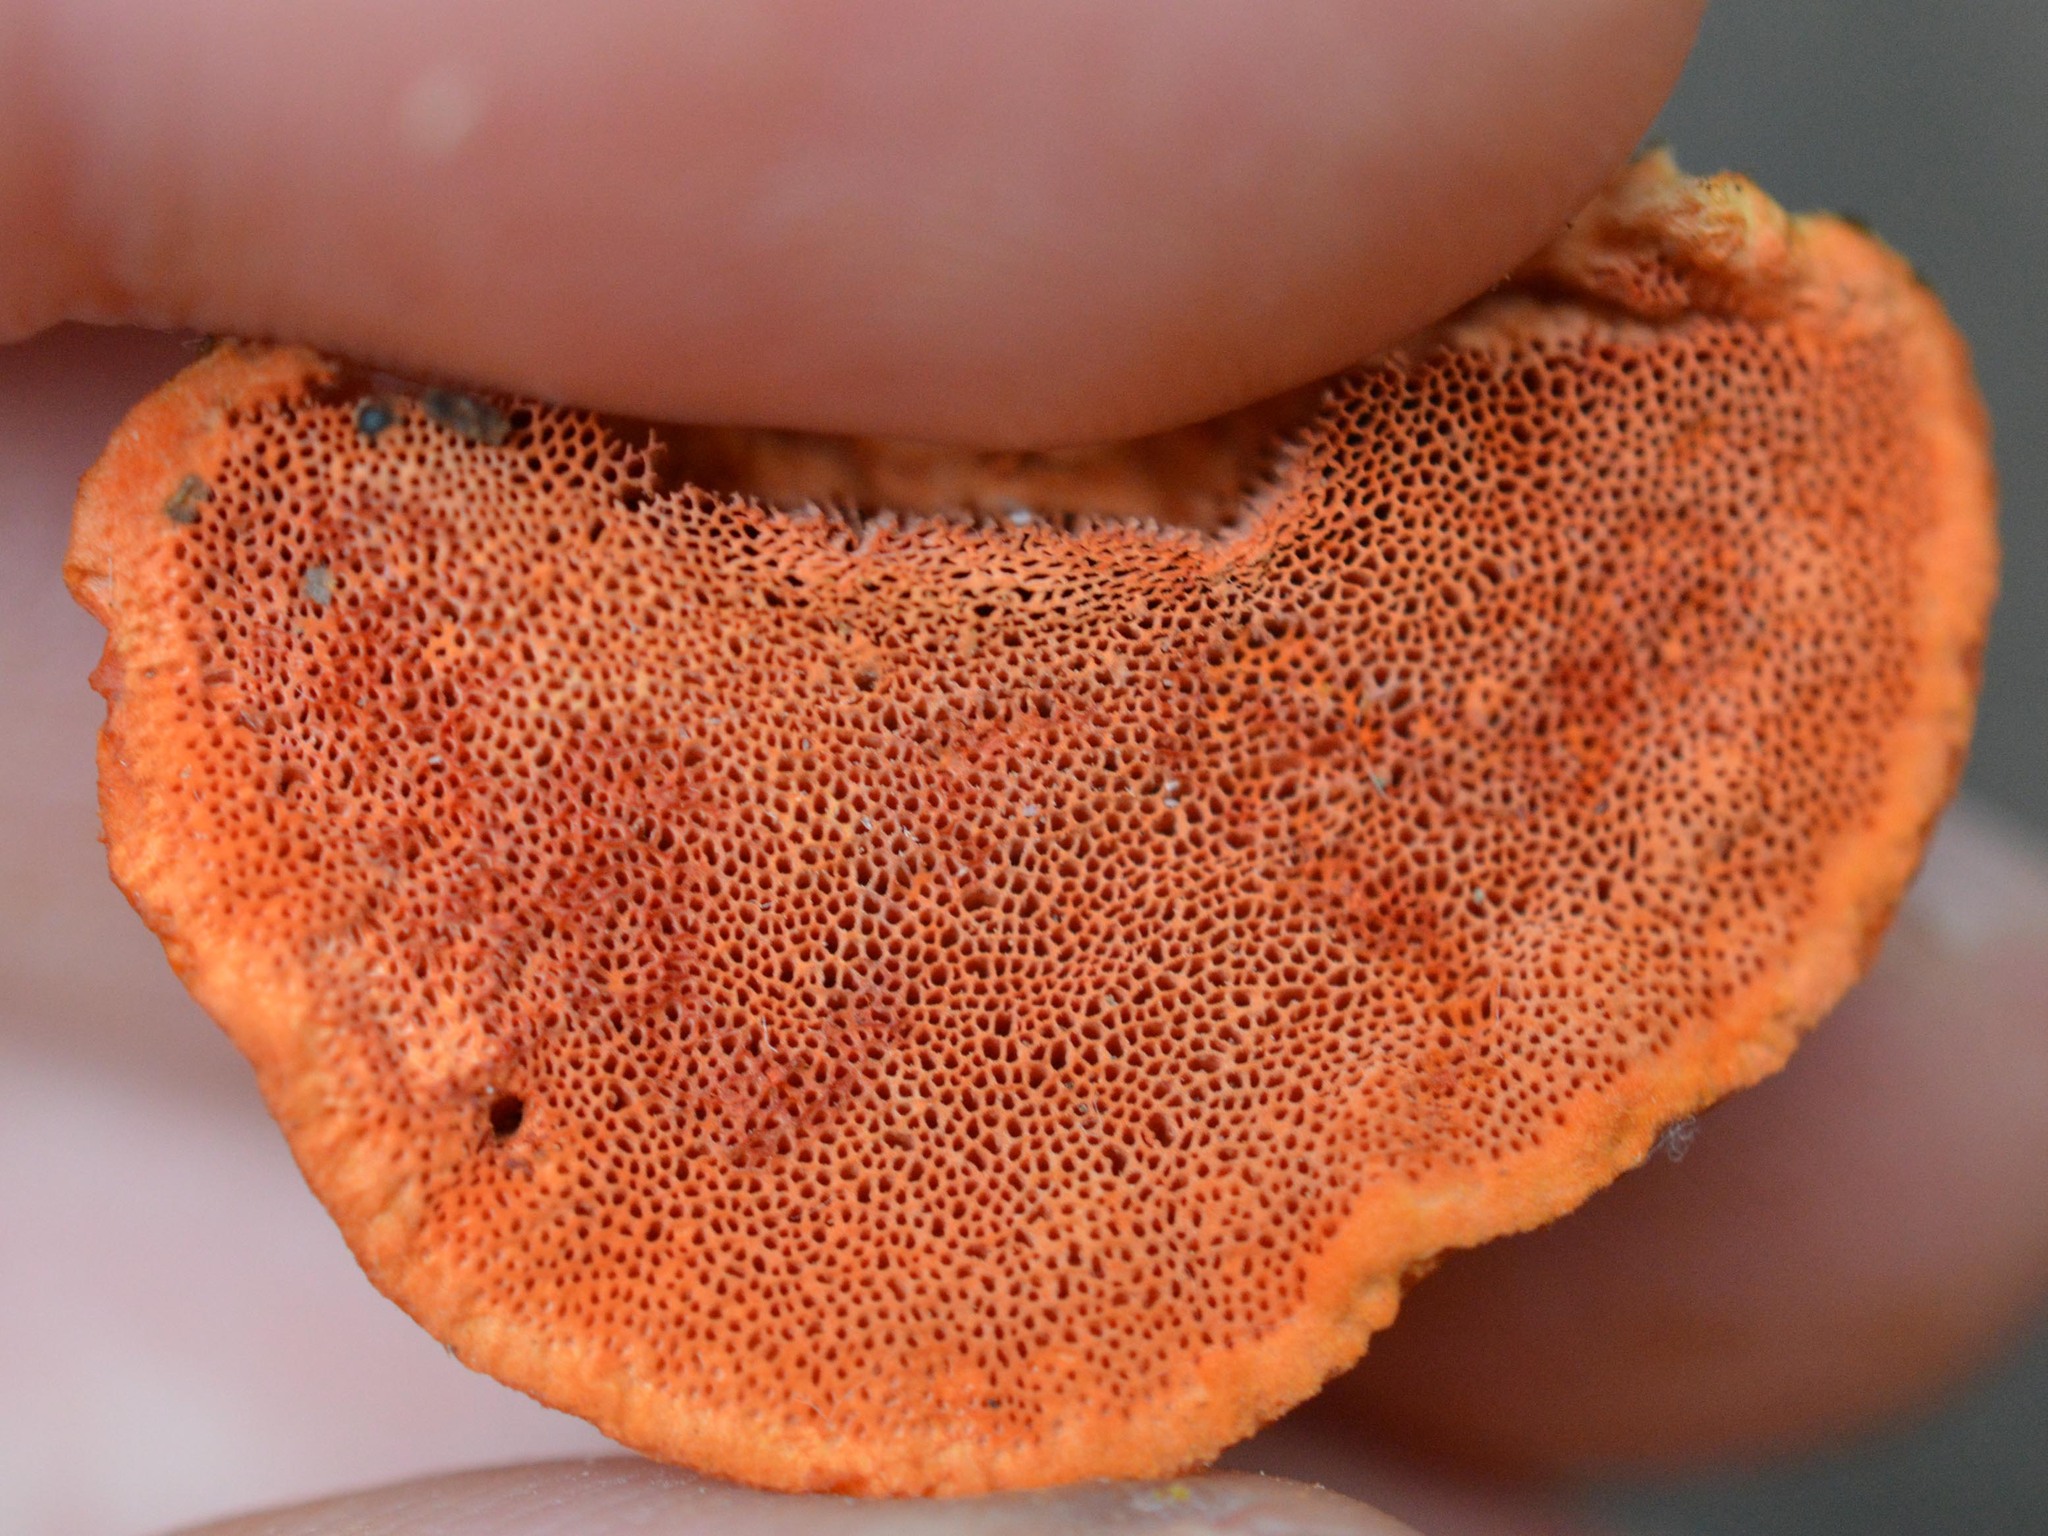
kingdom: Fungi
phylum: Basidiomycota
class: Agaricomycetes
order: Polyporales
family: Polyporaceae
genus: Trametes
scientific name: Trametes cinnabarina
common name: Northern cinnabar polypore
